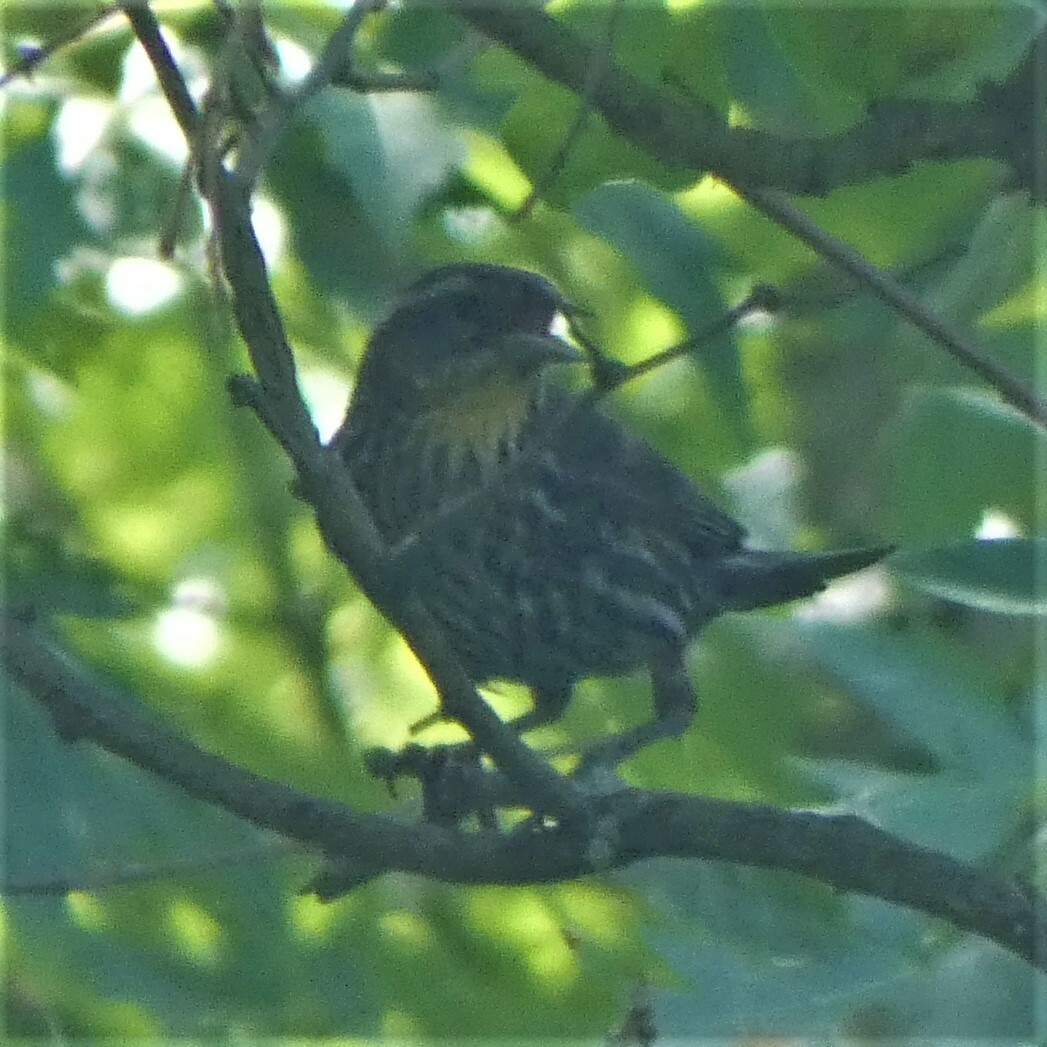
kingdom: Animalia
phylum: Chordata
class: Aves
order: Passeriformes
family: Icteridae
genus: Agelaius
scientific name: Agelaius phoeniceus
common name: Red-winged blackbird
